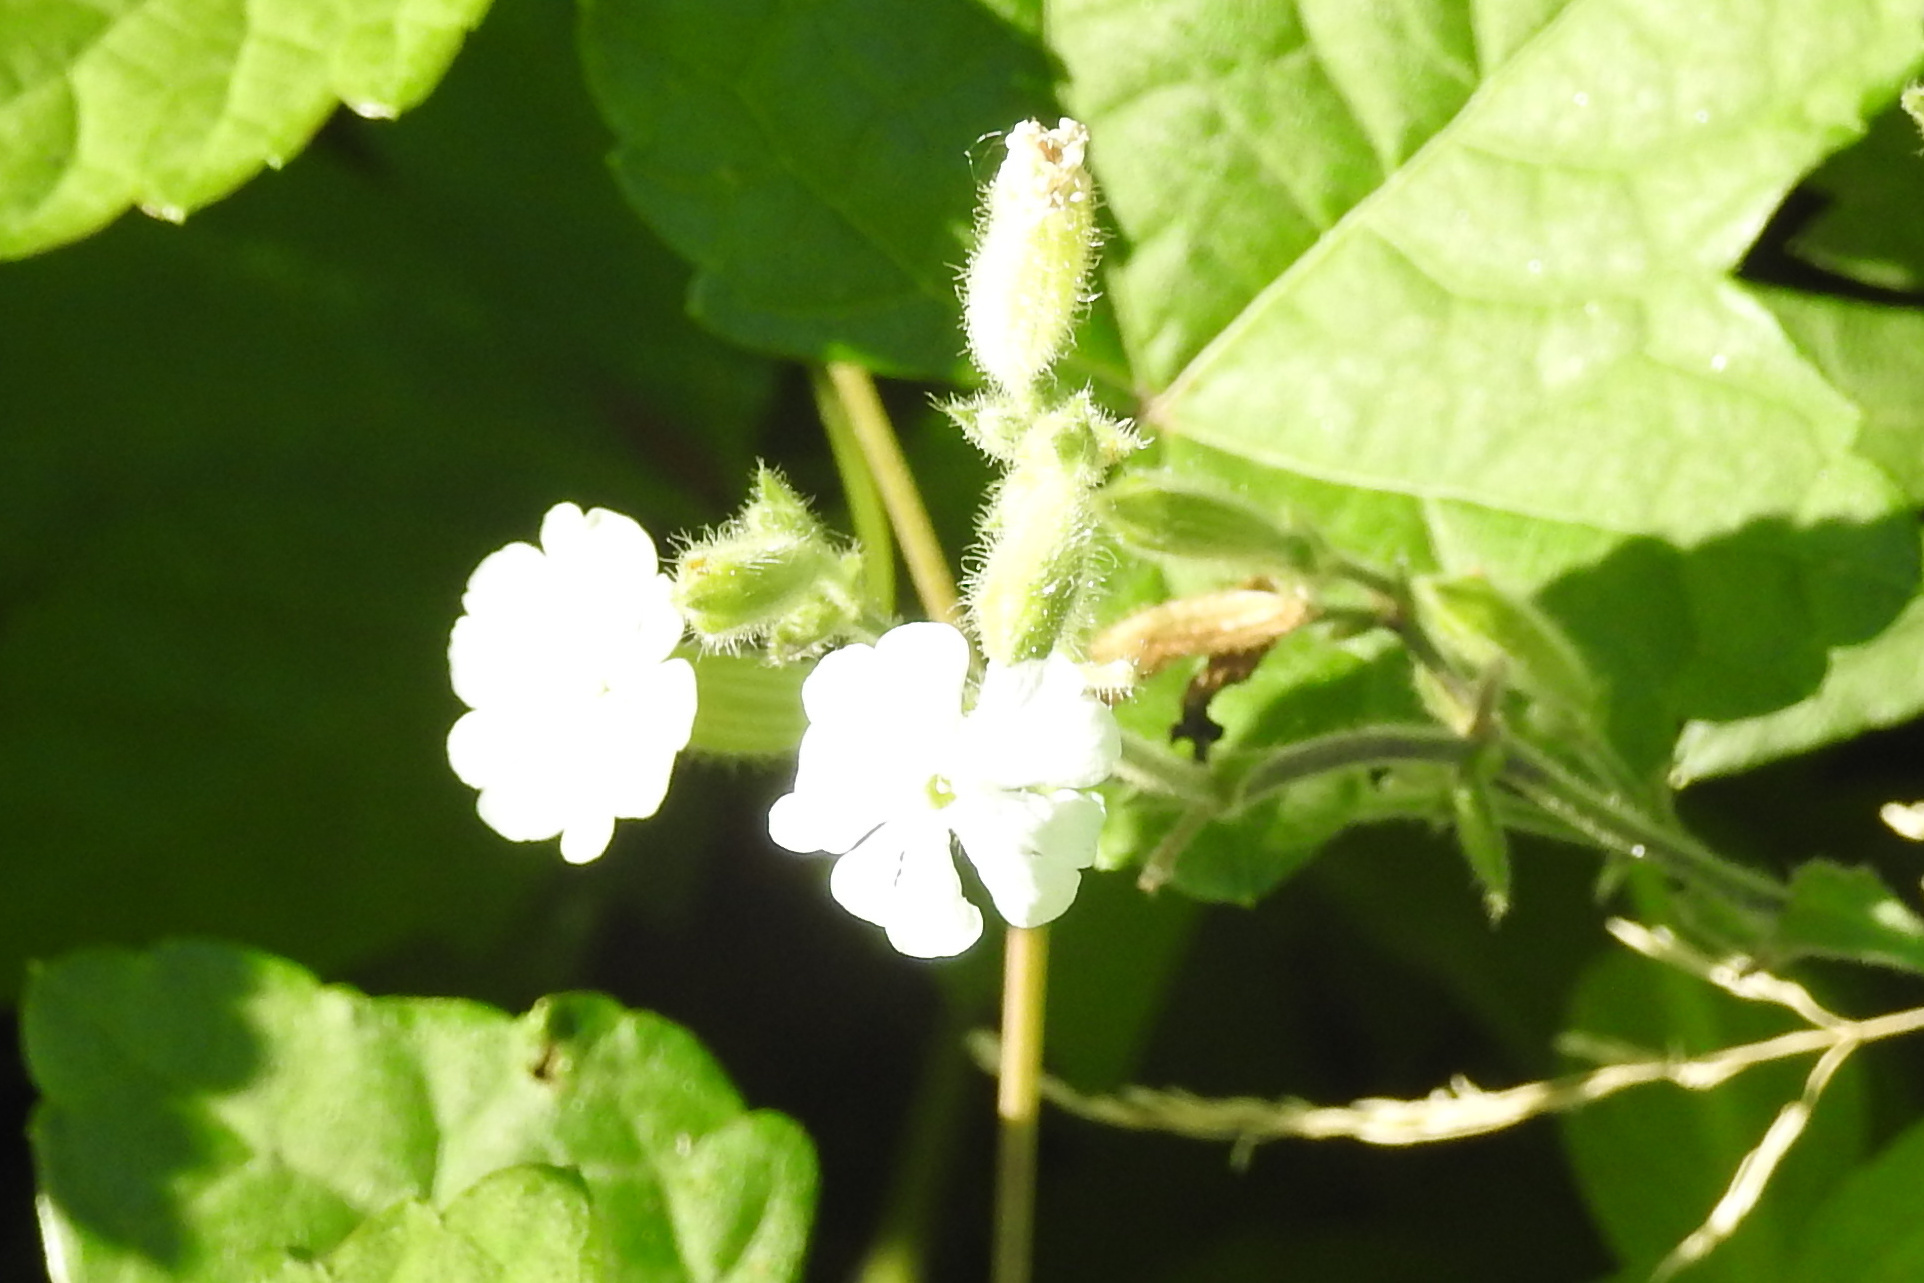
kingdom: Plantae
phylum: Tracheophyta
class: Magnoliopsida
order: Caryophyllales
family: Caryophyllaceae
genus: Silene
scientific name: Silene latifolia
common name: White campion
